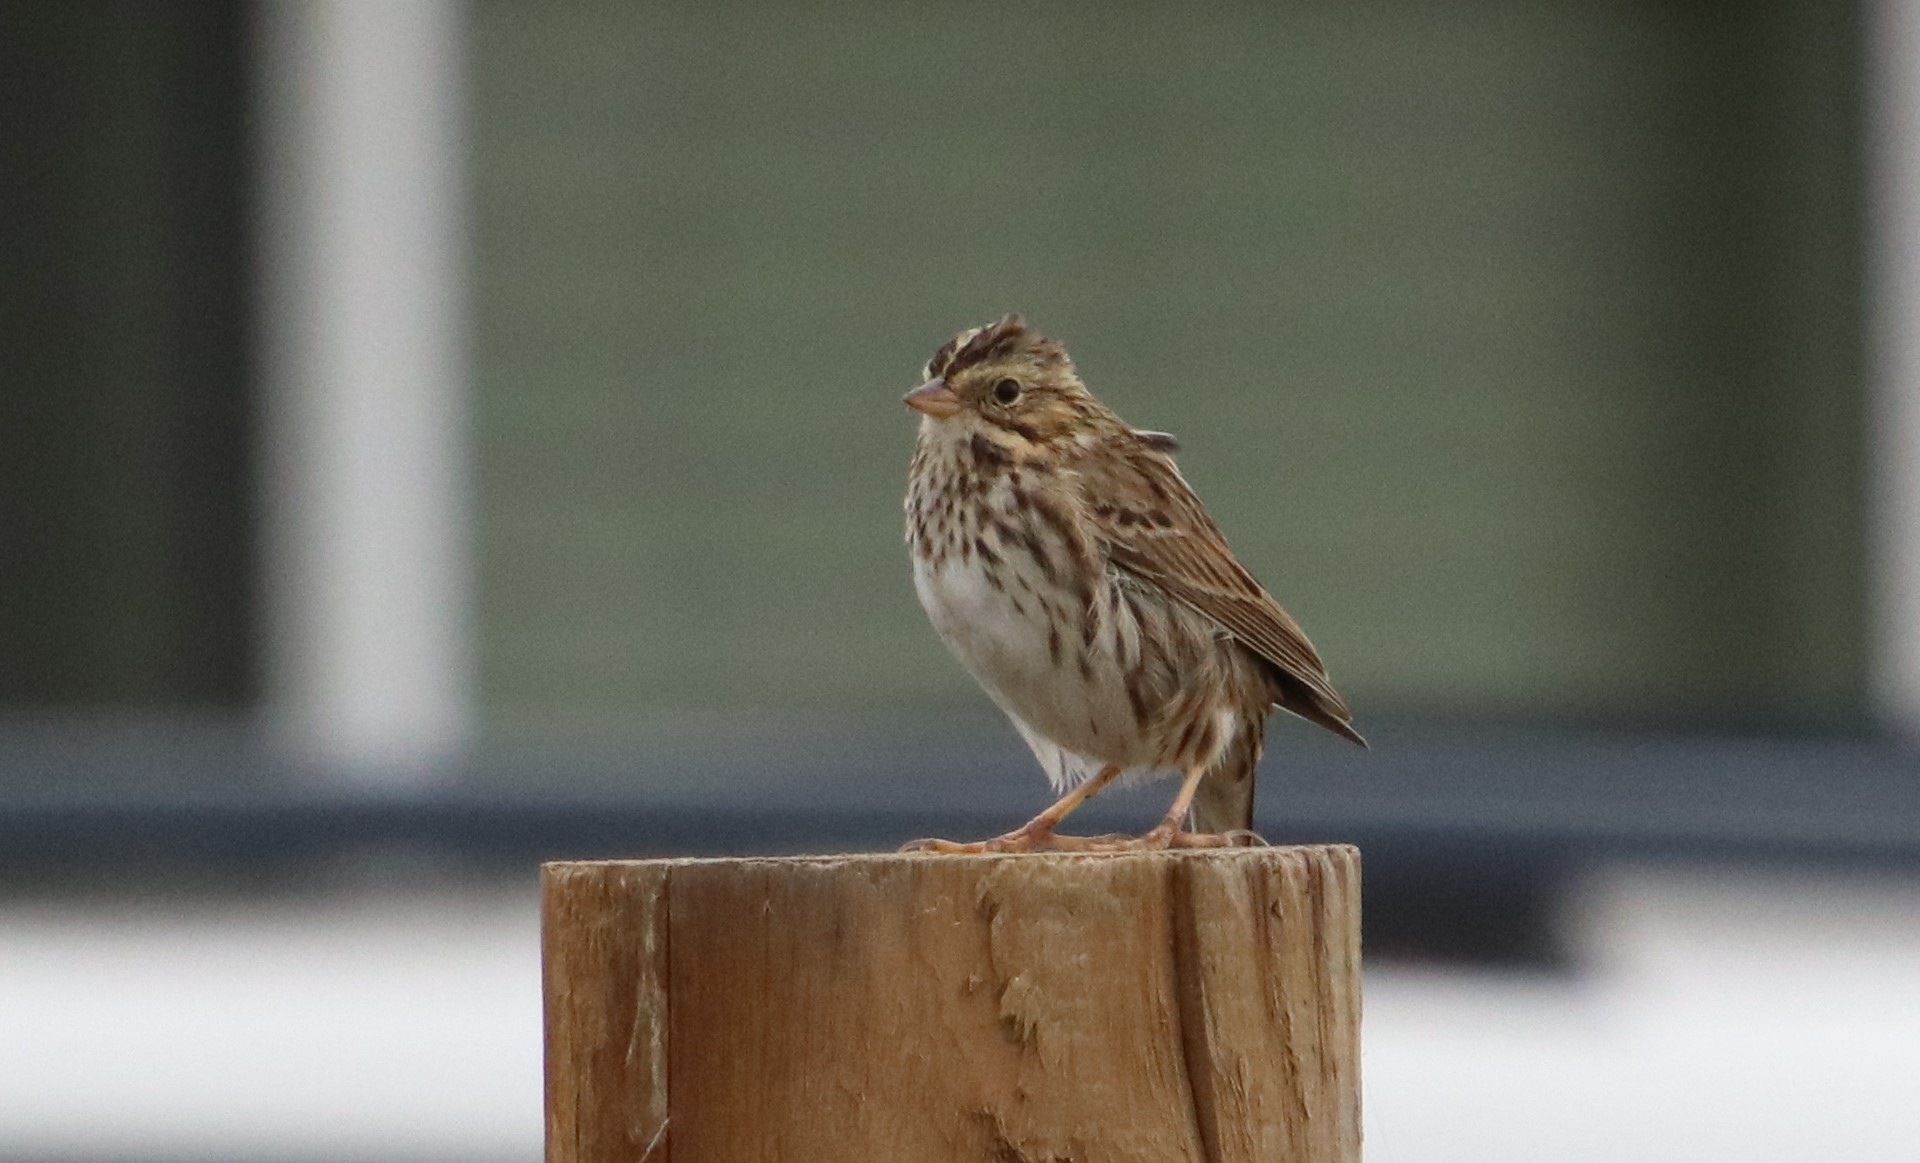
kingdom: Animalia
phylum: Chordata
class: Aves
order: Passeriformes
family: Passerellidae
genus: Passerculus
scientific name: Passerculus sandwichensis
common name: Savannah sparrow
